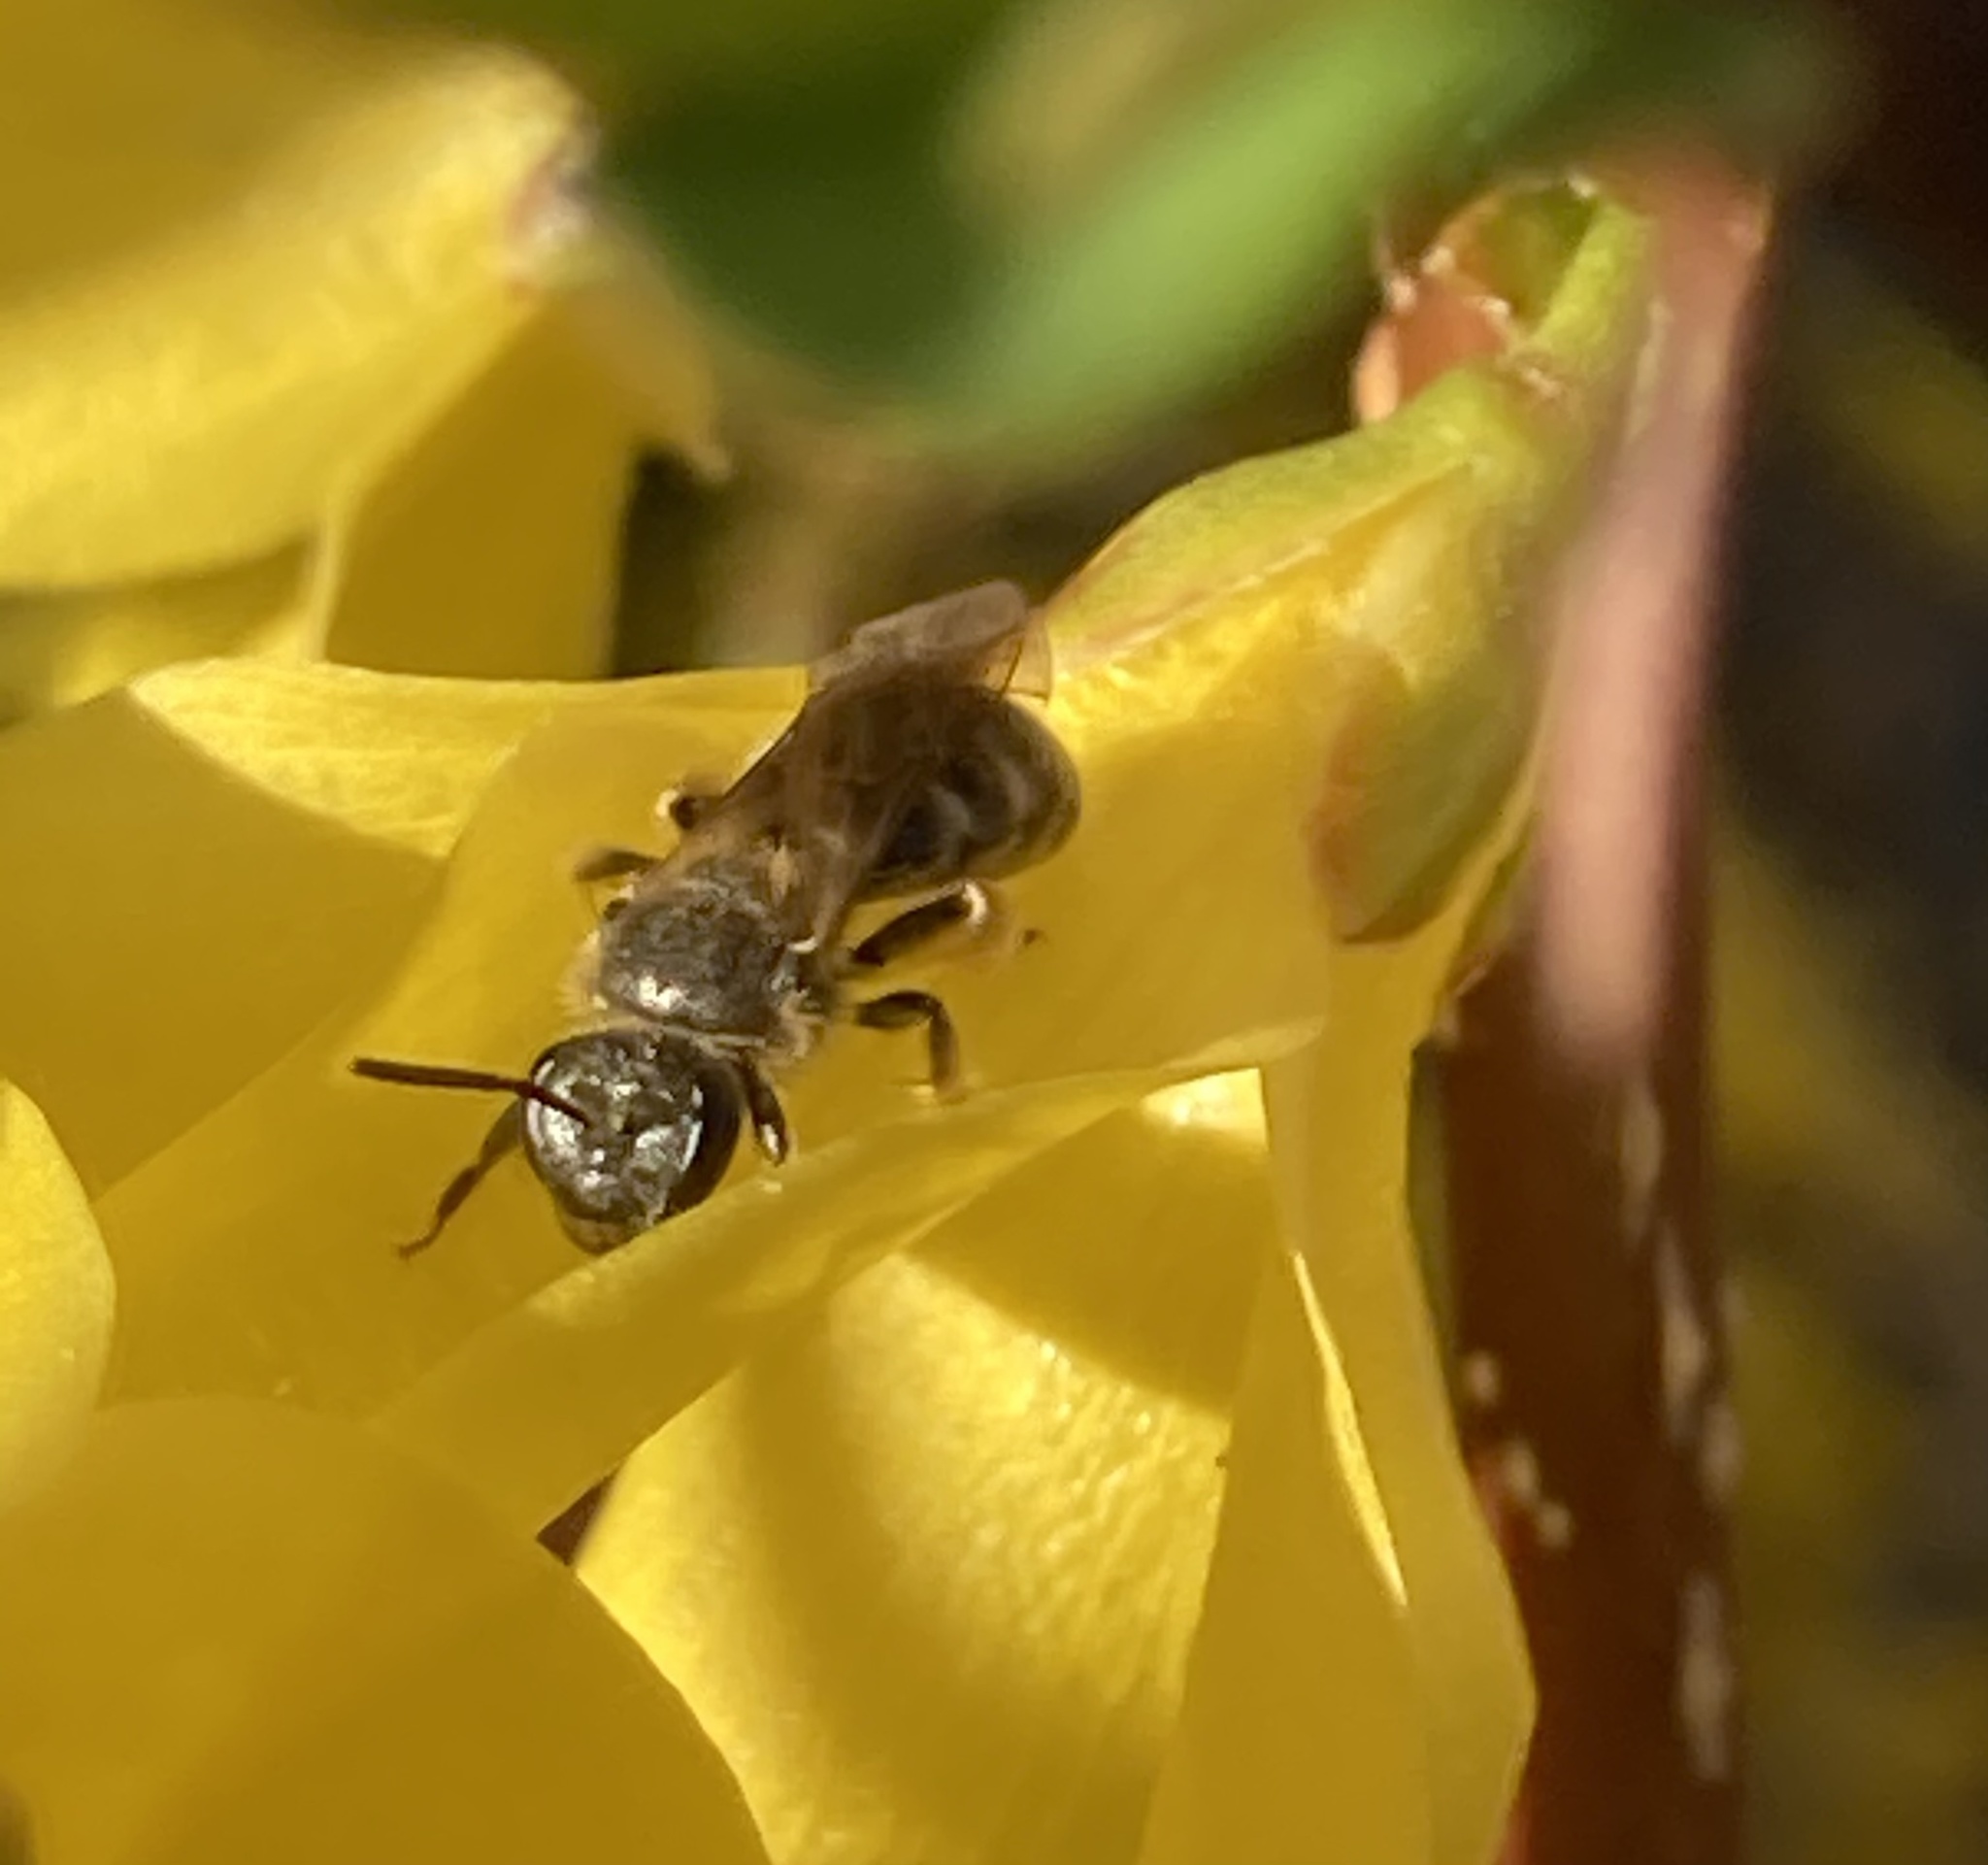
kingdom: Animalia
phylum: Arthropoda
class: Insecta
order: Hymenoptera
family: Halictidae
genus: Dialictus
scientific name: Dialictus
